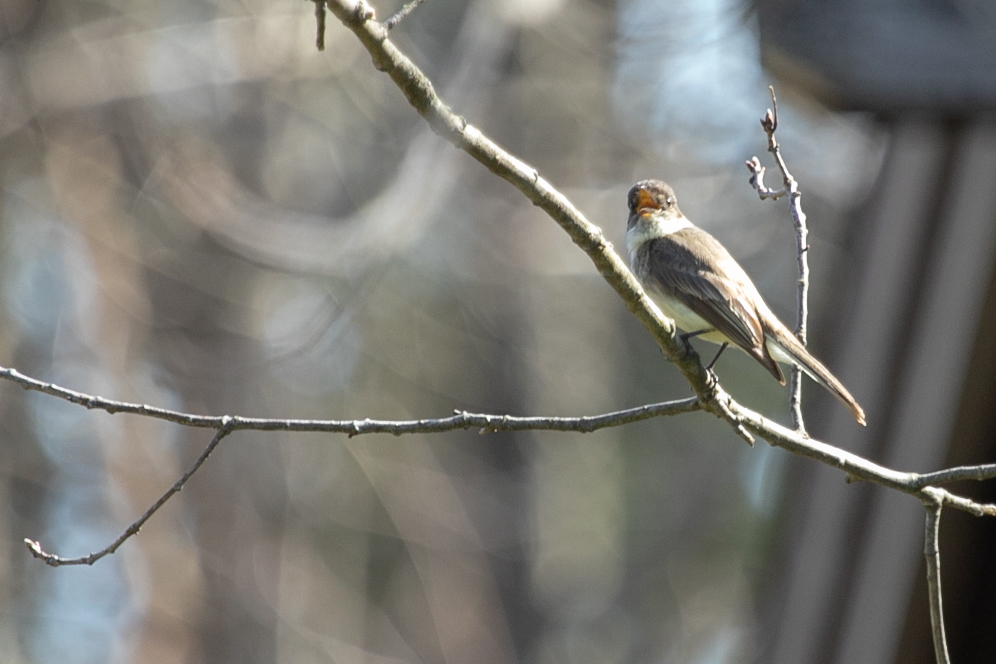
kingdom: Animalia
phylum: Chordata
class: Aves
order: Passeriformes
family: Tyrannidae
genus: Sayornis
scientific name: Sayornis phoebe
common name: Eastern phoebe
